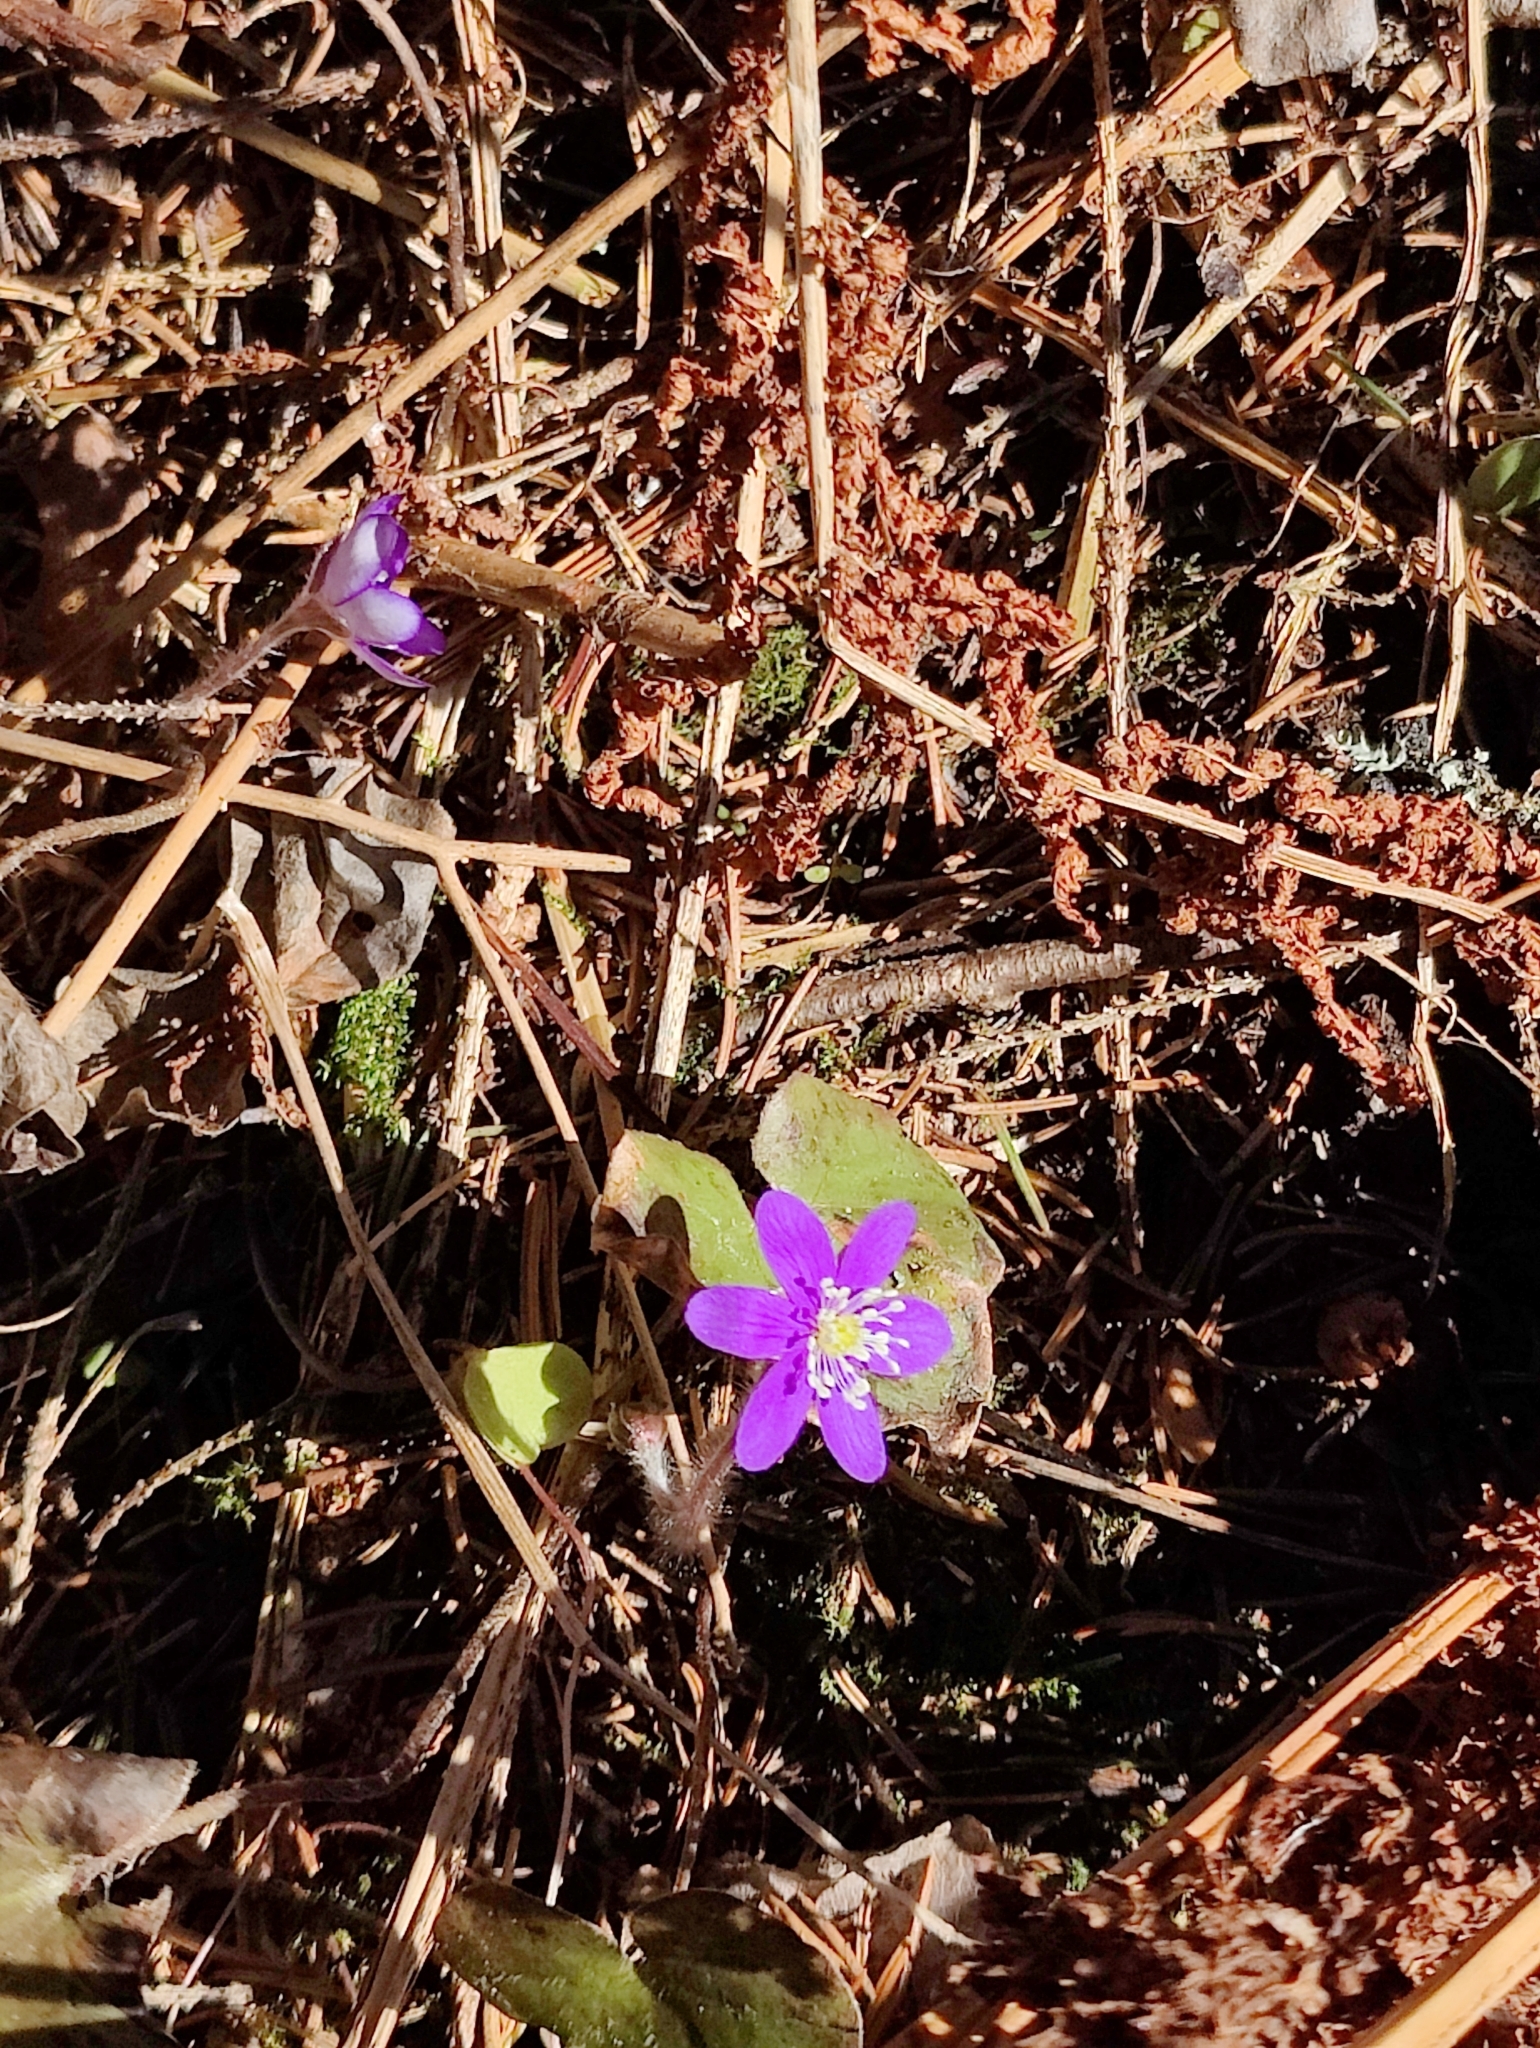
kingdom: Plantae
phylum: Tracheophyta
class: Magnoliopsida
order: Ranunculales
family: Ranunculaceae
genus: Hepatica
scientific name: Hepatica nobilis
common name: Liverleaf
